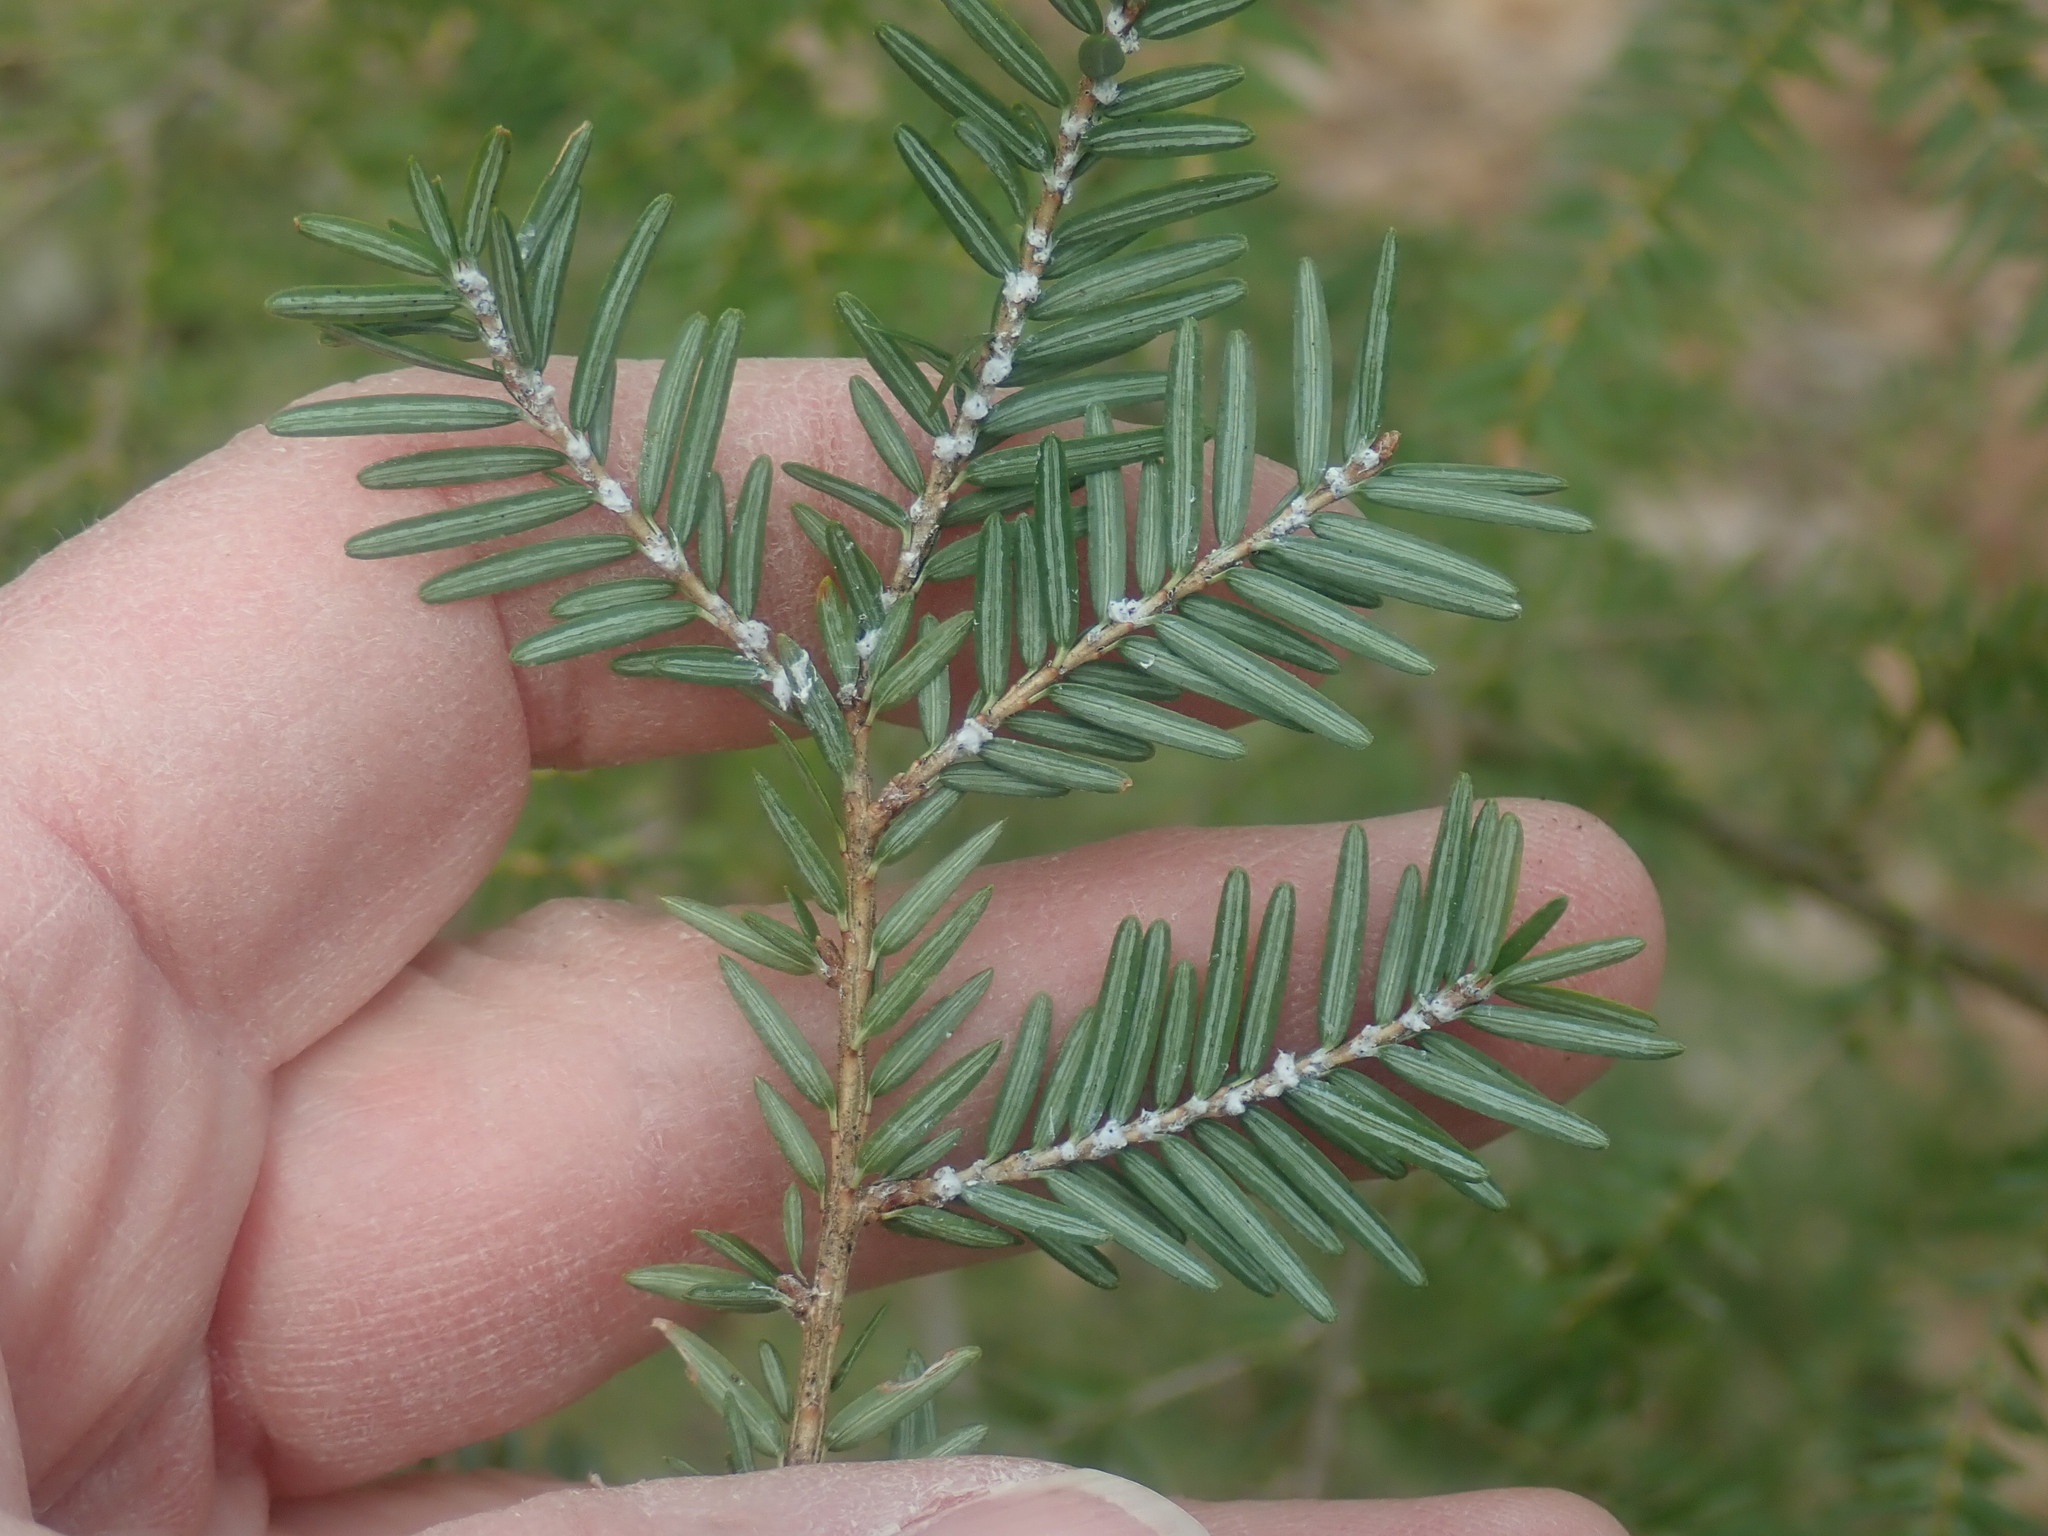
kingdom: Animalia
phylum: Arthropoda
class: Insecta
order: Hemiptera
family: Adelgidae
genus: Adelges
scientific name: Adelges tsugae
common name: Hemlock woolly adelgid
